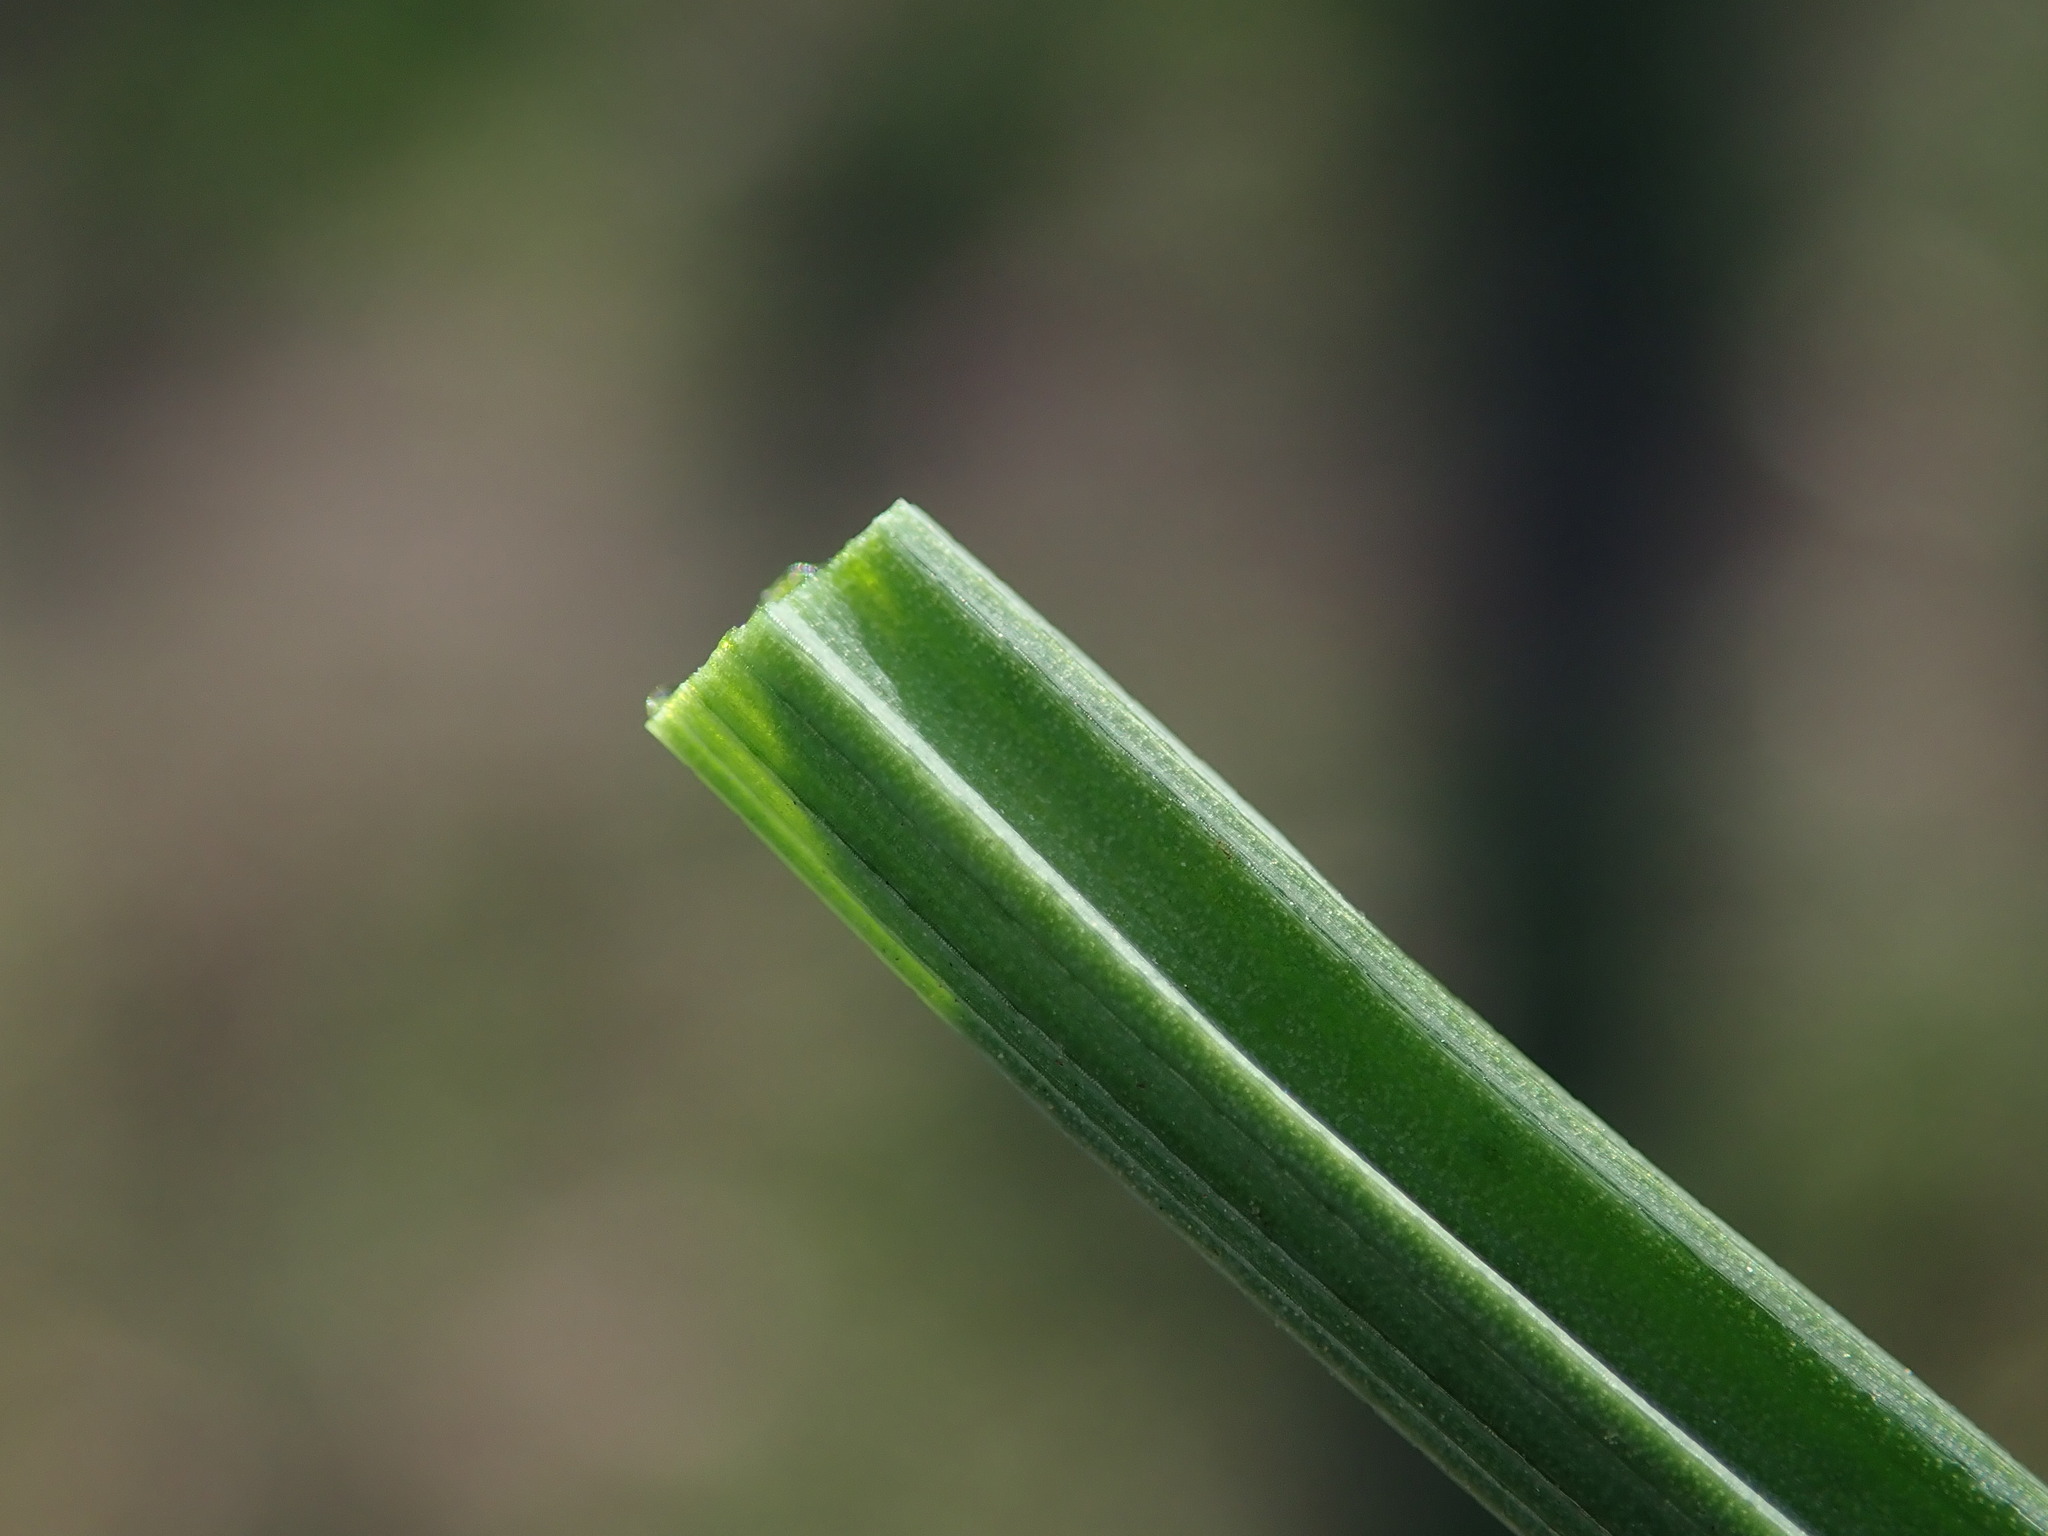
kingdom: Plantae
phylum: Tracheophyta
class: Liliopsida
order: Asparagales
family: Amaryllidaceae
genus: Allium
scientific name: Allium vineale
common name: Crow garlic
